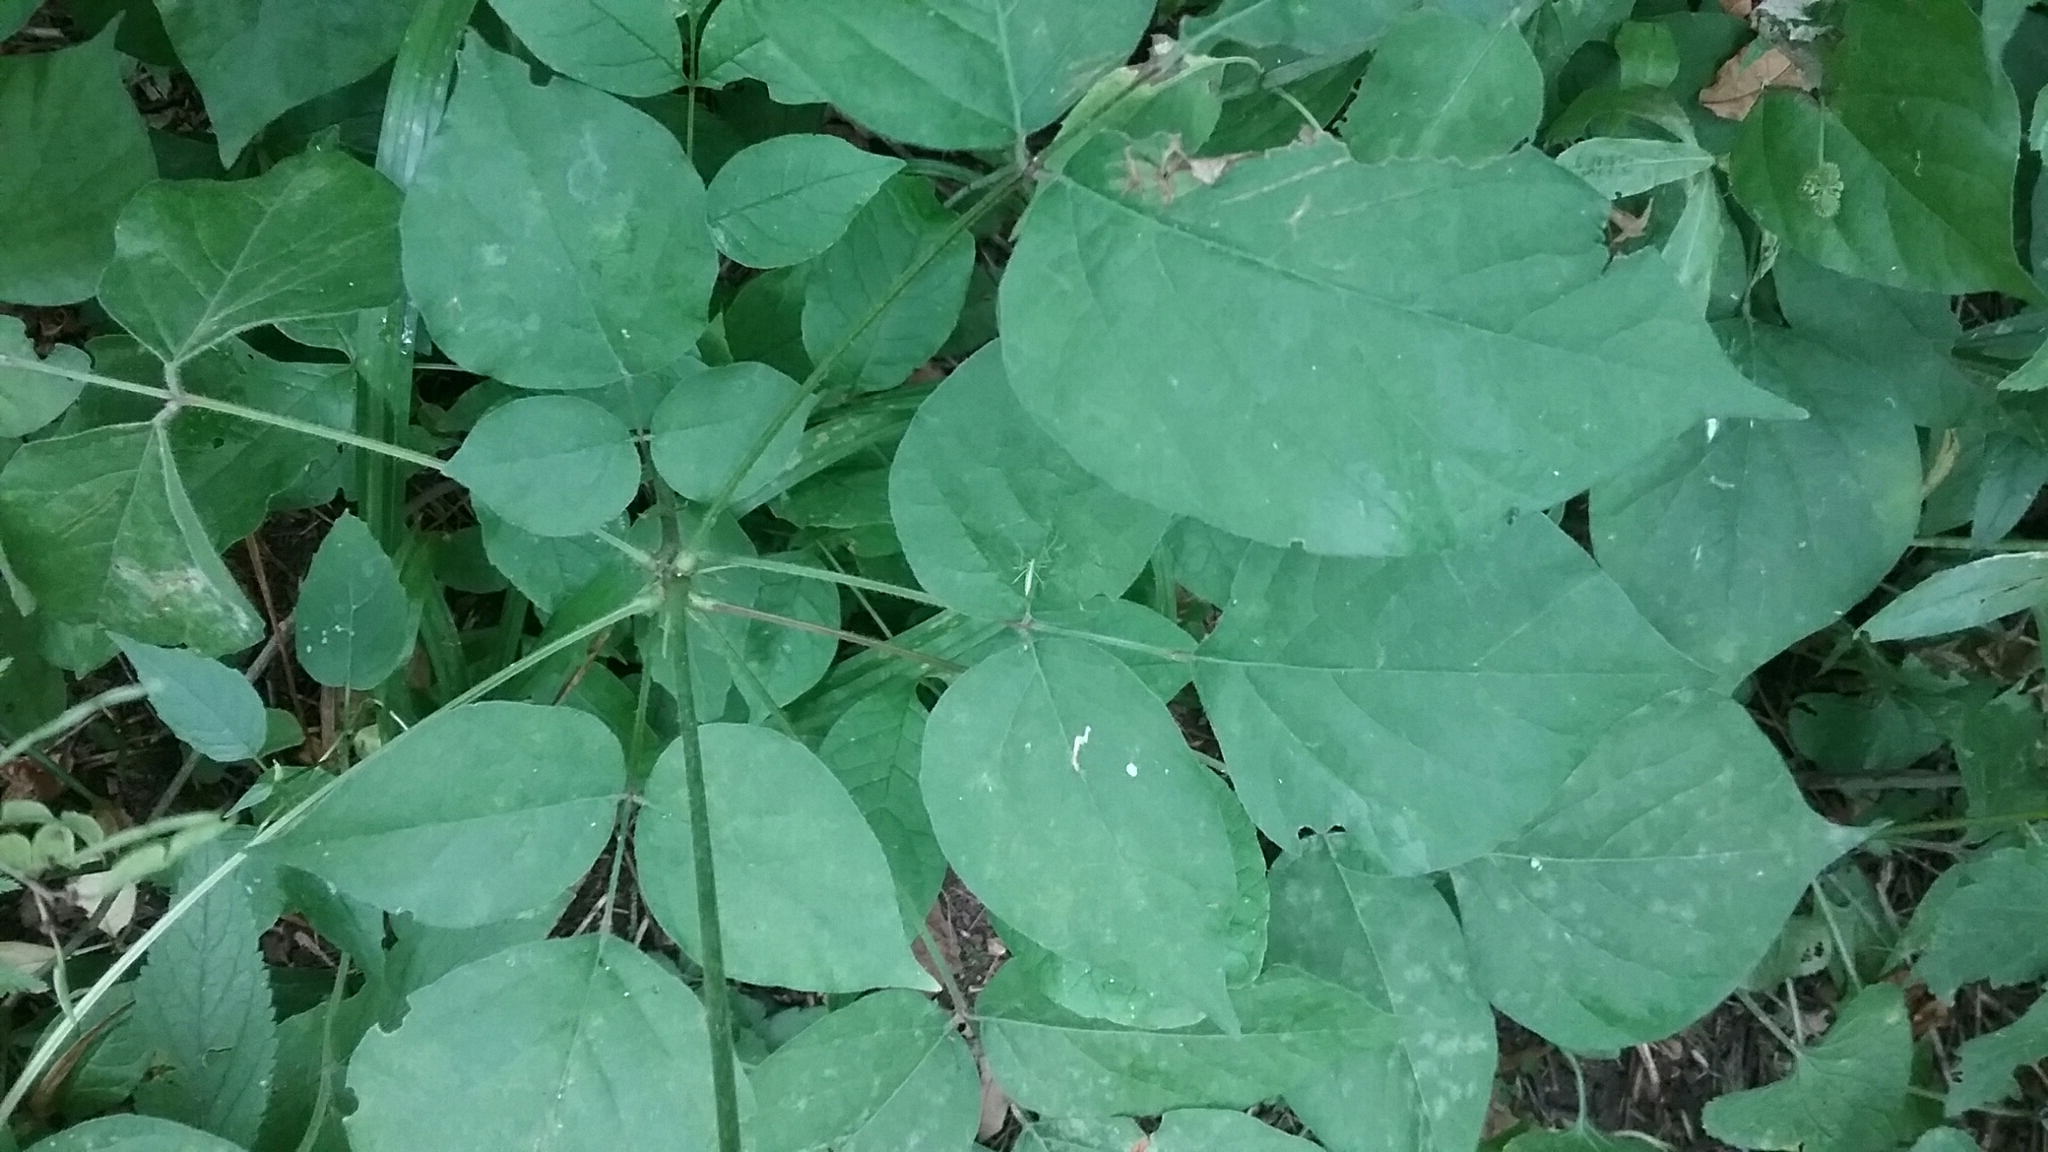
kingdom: Plantae
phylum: Tracheophyta
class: Magnoliopsida
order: Fabales
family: Fabaceae
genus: Hylodesmum
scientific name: Hylodesmum glutinosum
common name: Clustered-leaved tick-trefoil
